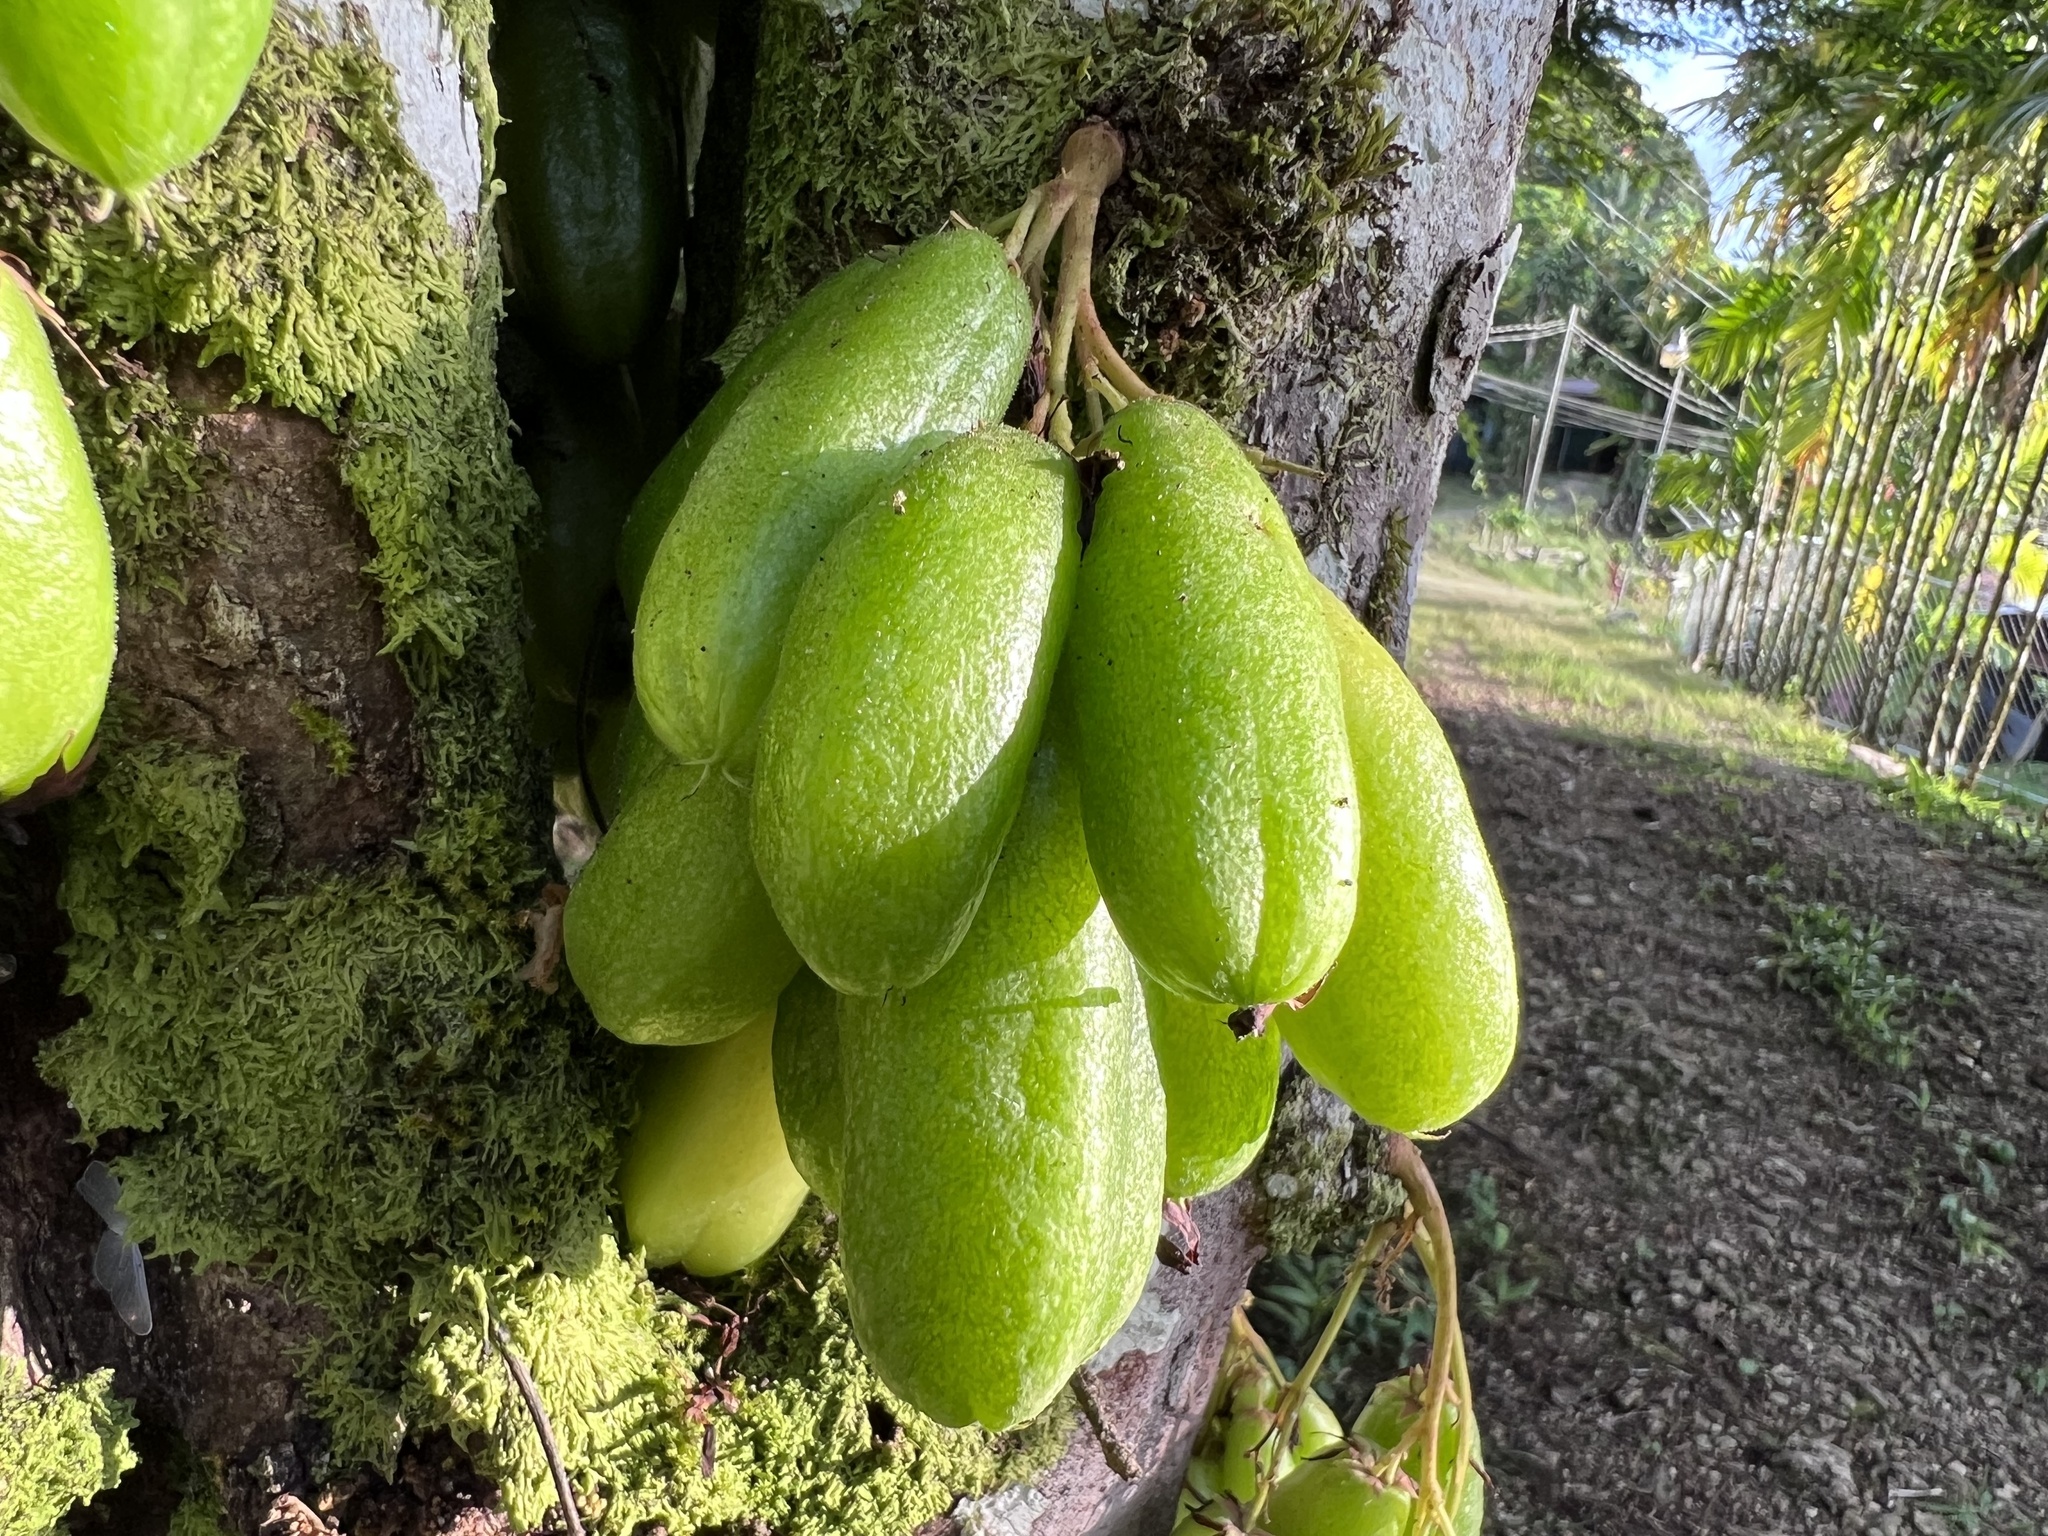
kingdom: Plantae
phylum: Tracheophyta
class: Magnoliopsida
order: Oxalidales
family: Oxalidaceae
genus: Averrhoa
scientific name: Averrhoa bilimbi
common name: Bilimbi
